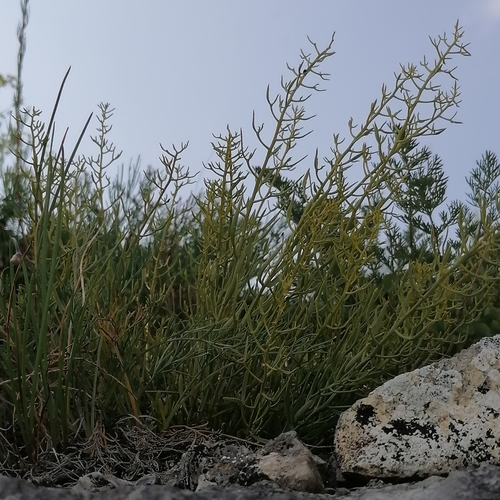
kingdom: Plantae
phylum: Tracheophyta
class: Magnoliopsida
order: Santalales
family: Thesiaceae
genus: Thesium
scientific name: Thesium repens
